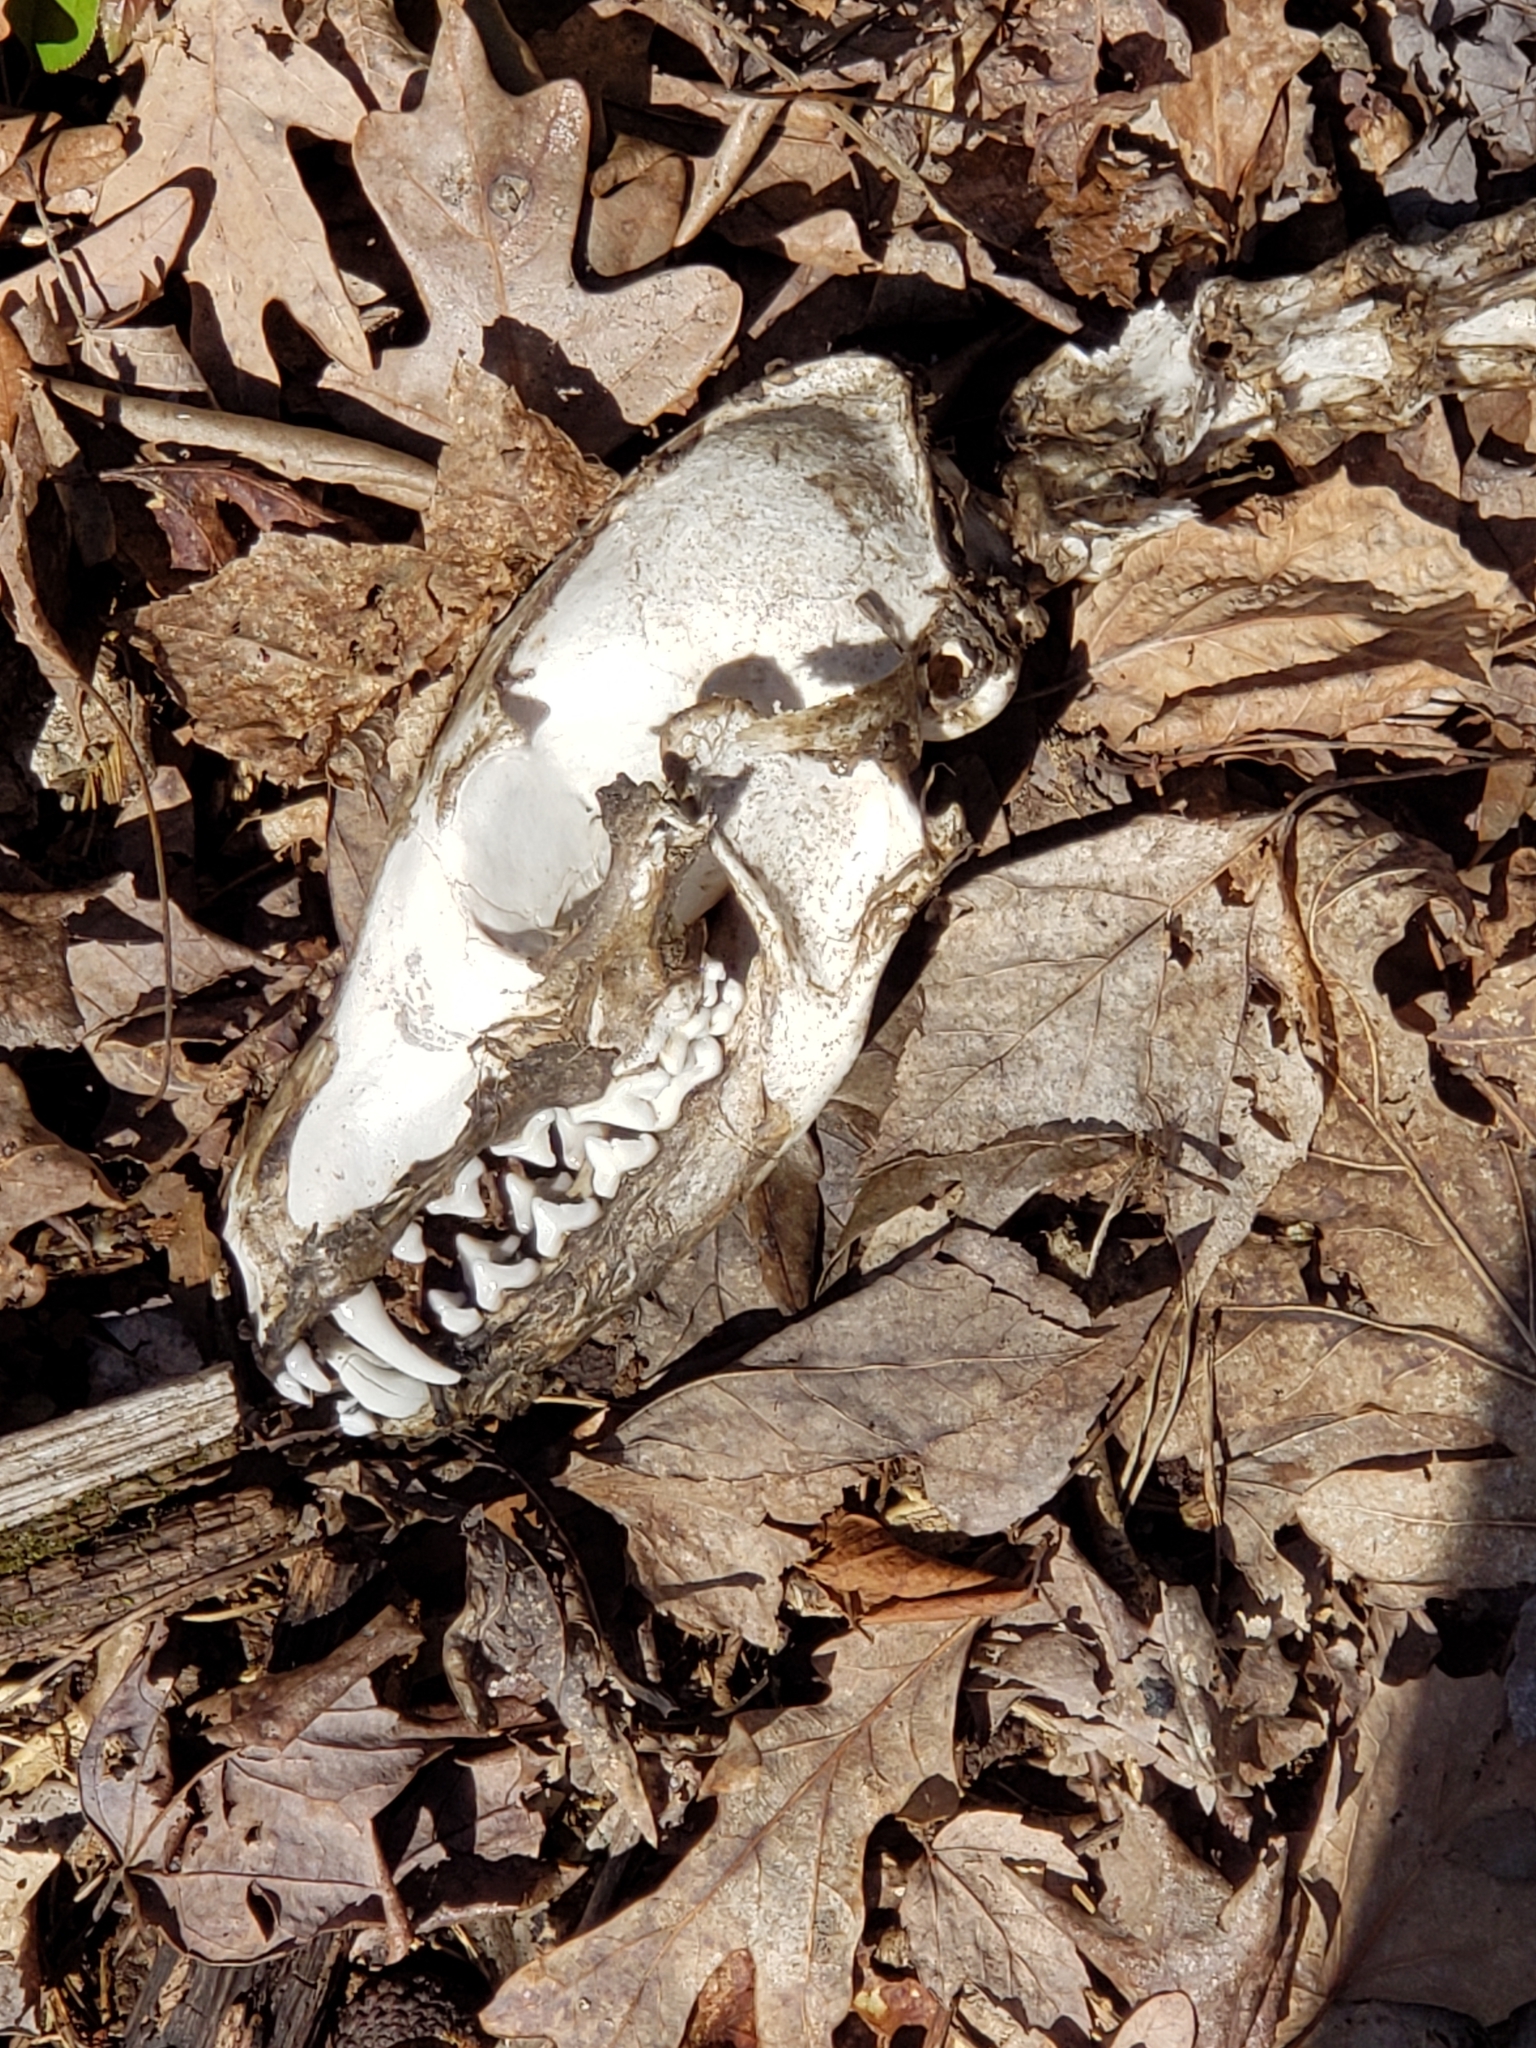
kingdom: Animalia
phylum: Chordata
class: Mammalia
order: Carnivora
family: Canidae
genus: Vulpes
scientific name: Vulpes vulpes
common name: Red fox
